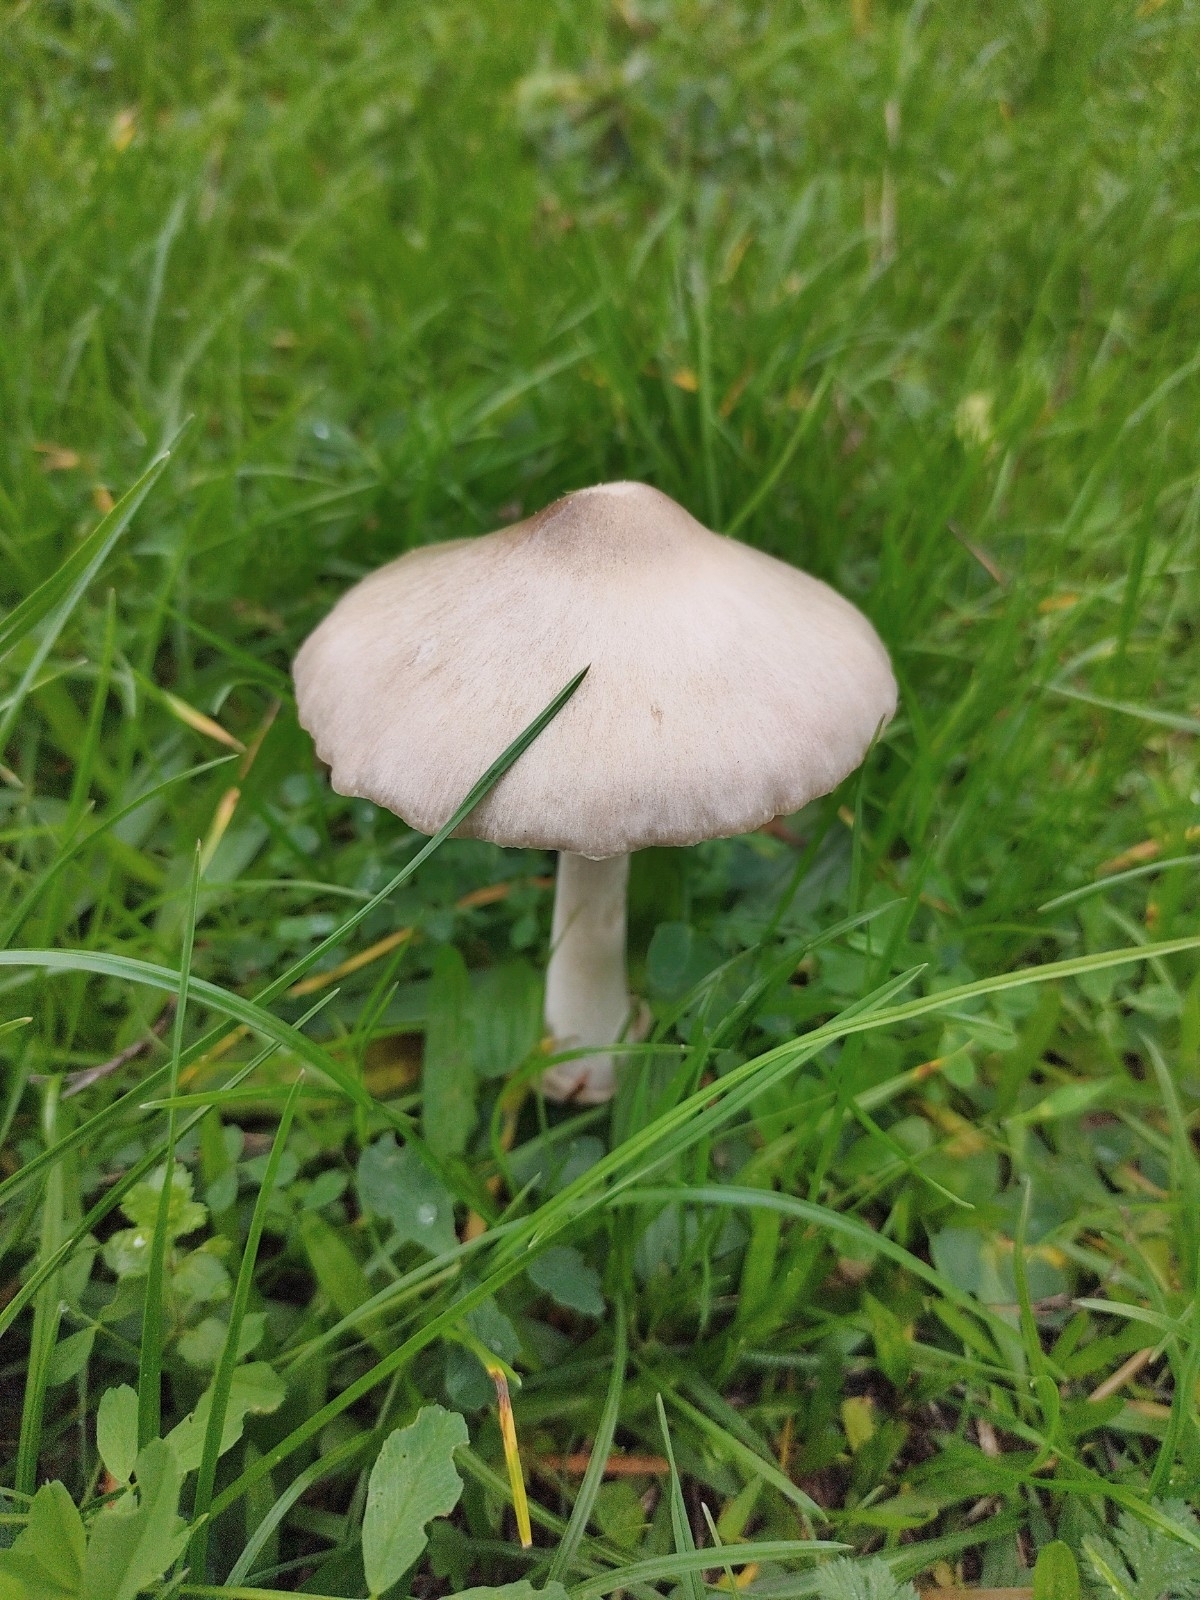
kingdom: Fungi
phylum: Basidiomycota
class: Agaricomycetes
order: Agaricales
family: Pluteaceae
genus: Volvopluteus
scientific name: Volvopluteus gloiocephalus
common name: Stubble rosegill
